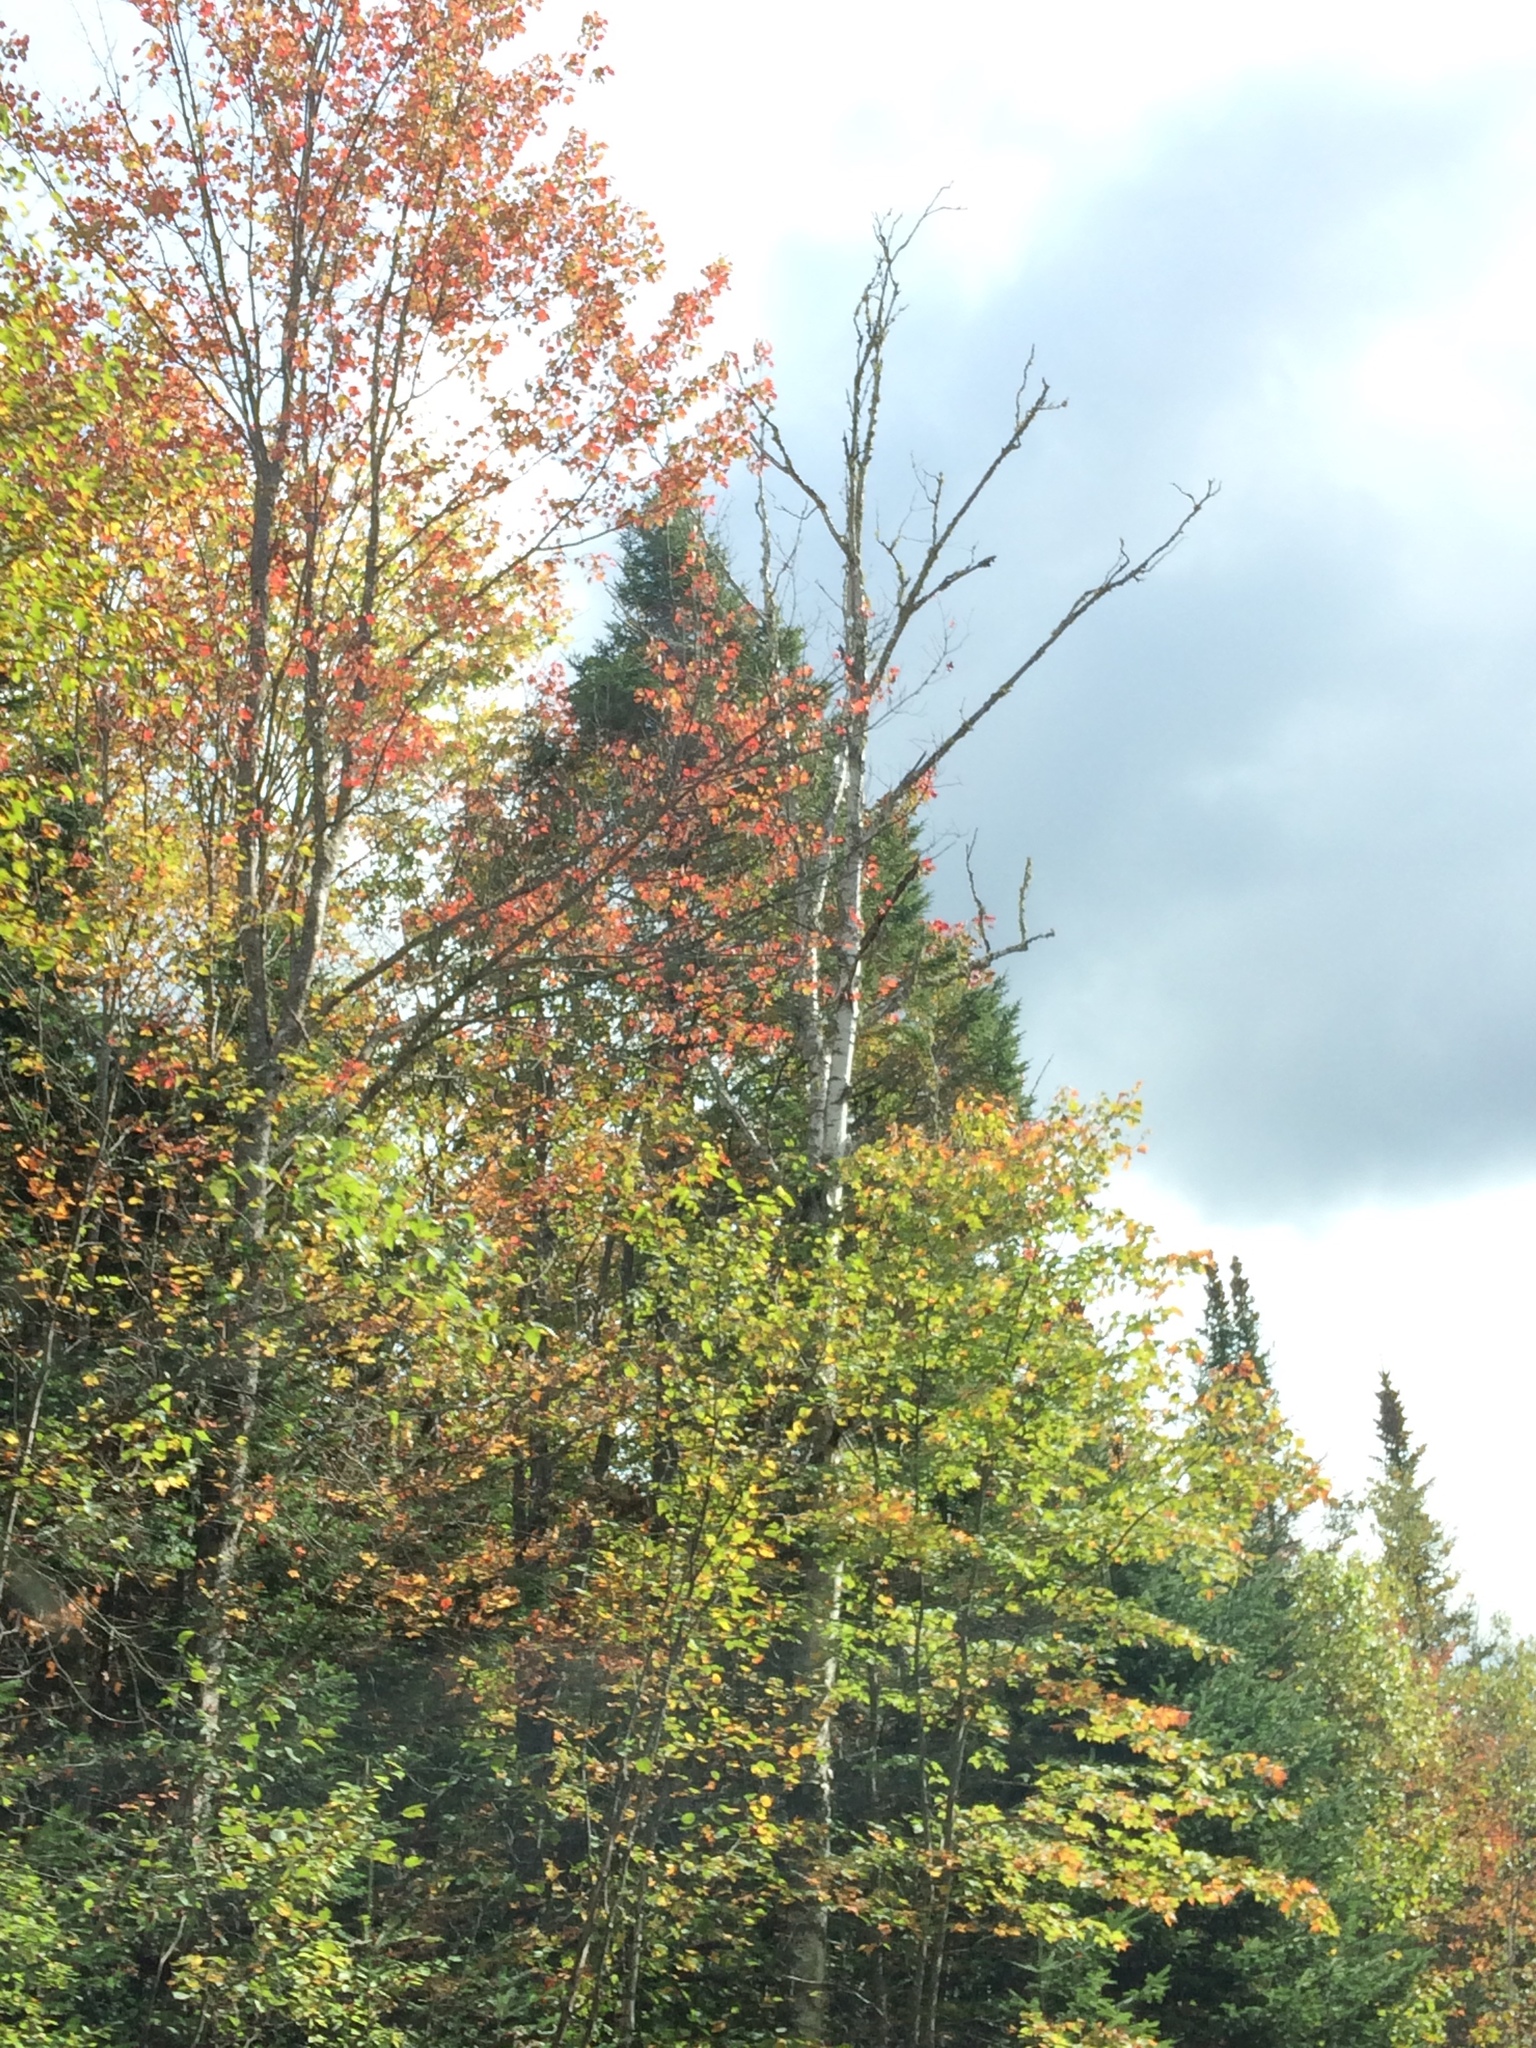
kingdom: Plantae
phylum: Tracheophyta
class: Magnoliopsida
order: Sapindales
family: Sapindaceae
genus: Acer
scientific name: Acer rubrum
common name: Red maple
